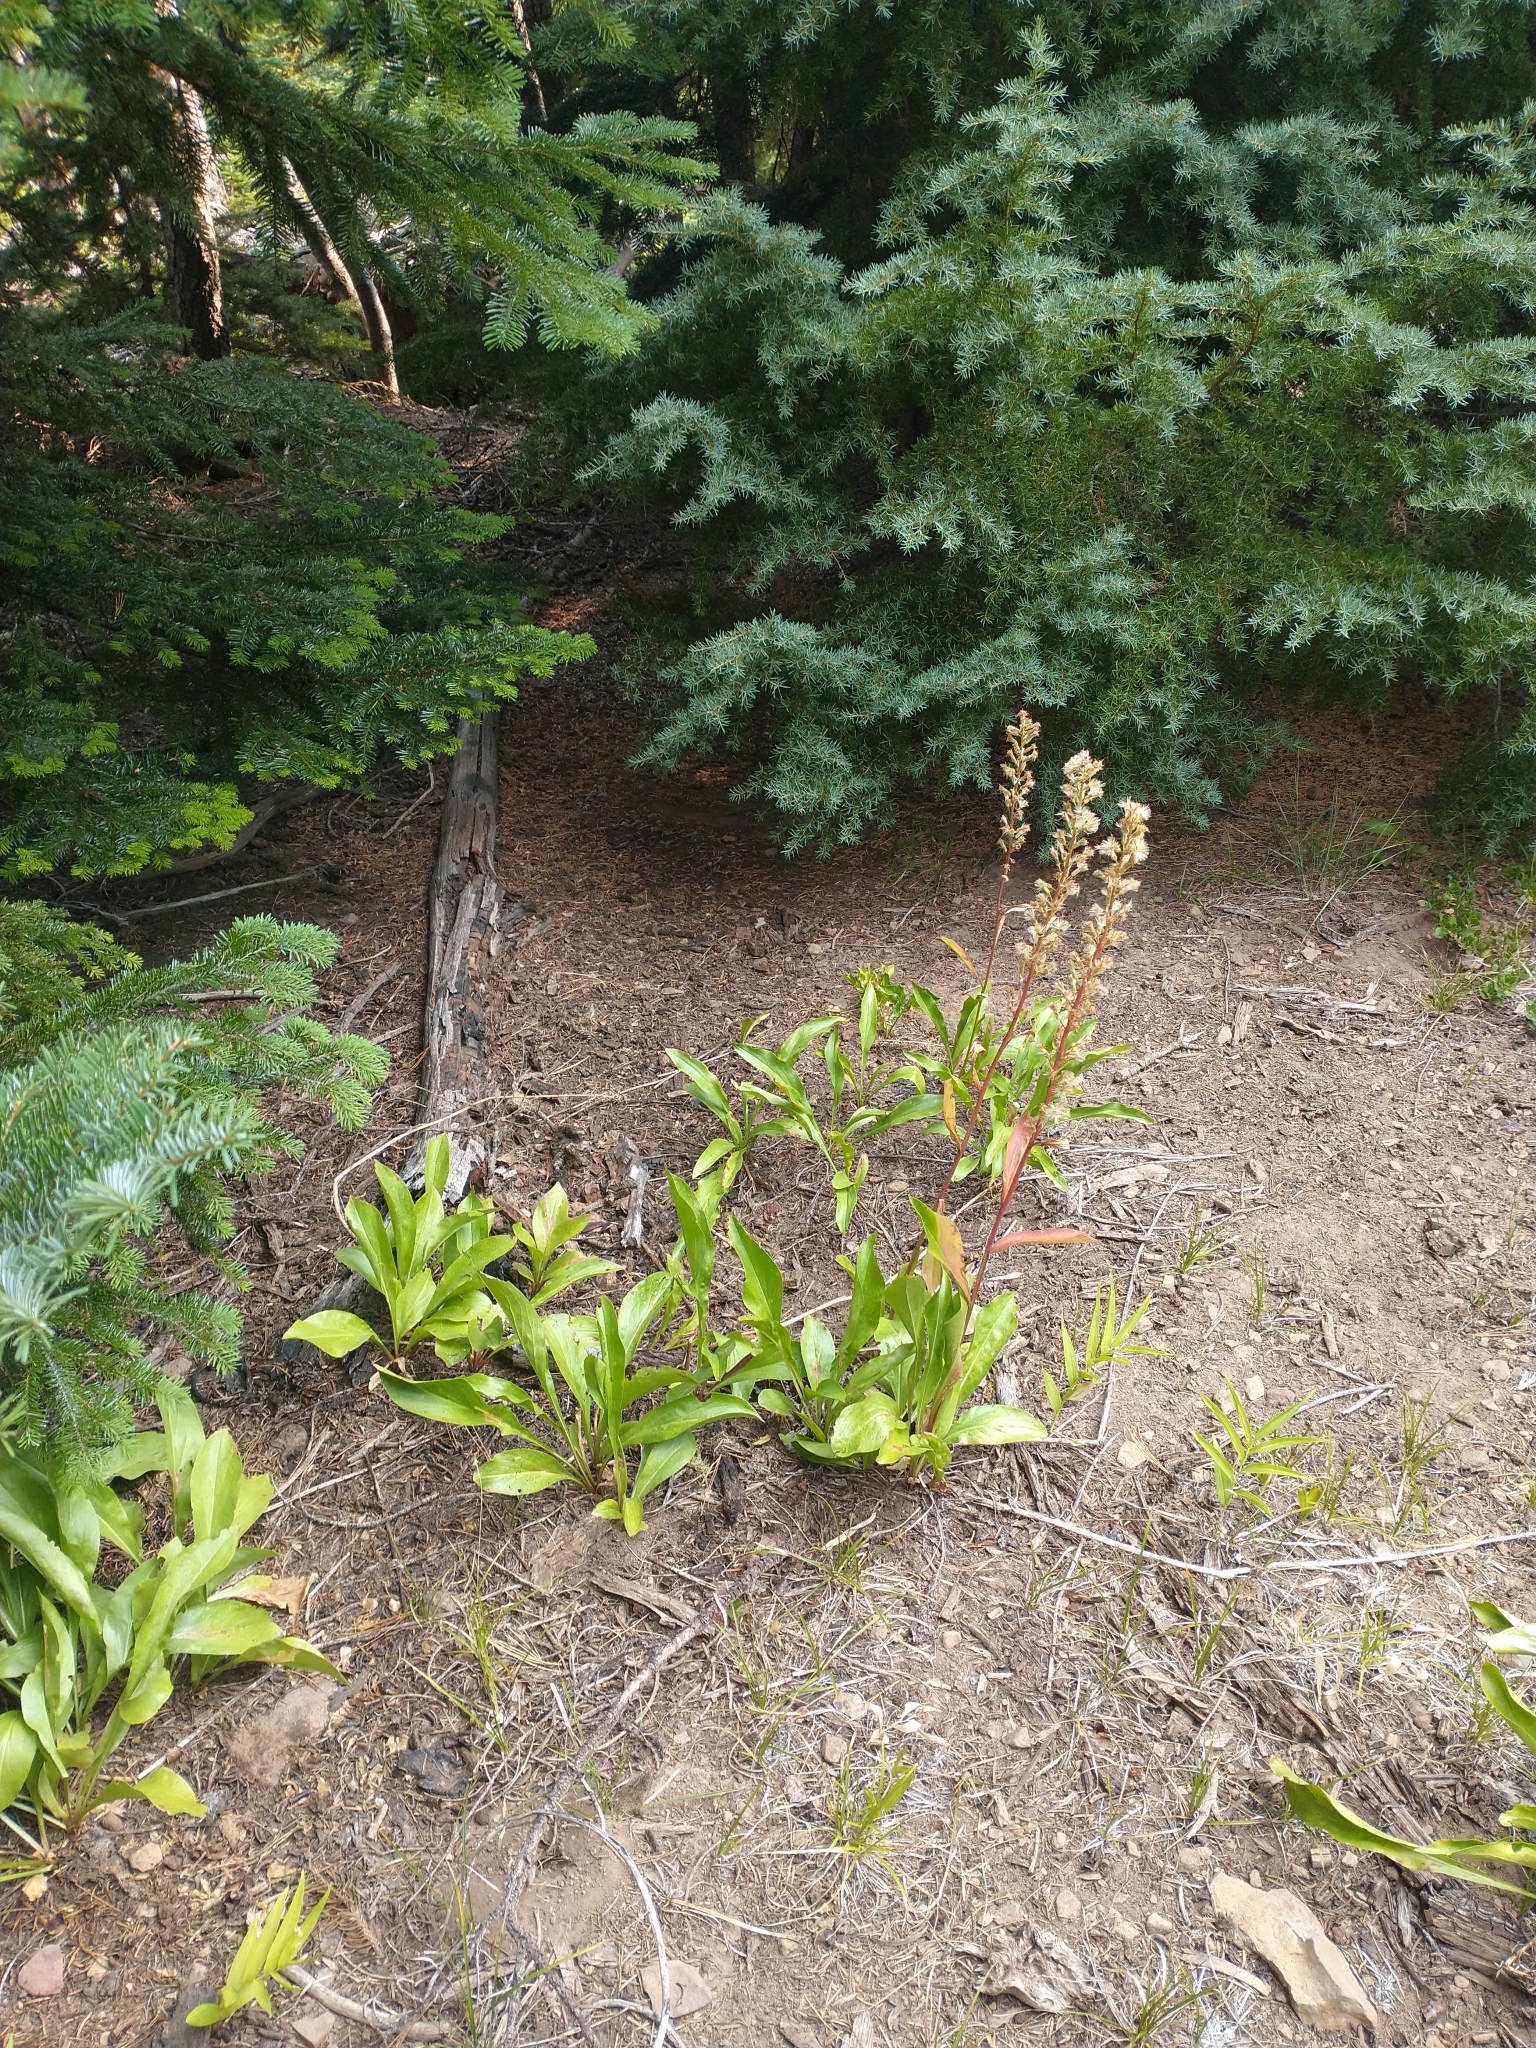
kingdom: Plantae
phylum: Tracheophyta
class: Magnoliopsida
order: Asterales
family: Asteraceae
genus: Rainiera
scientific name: Rainiera stricta
